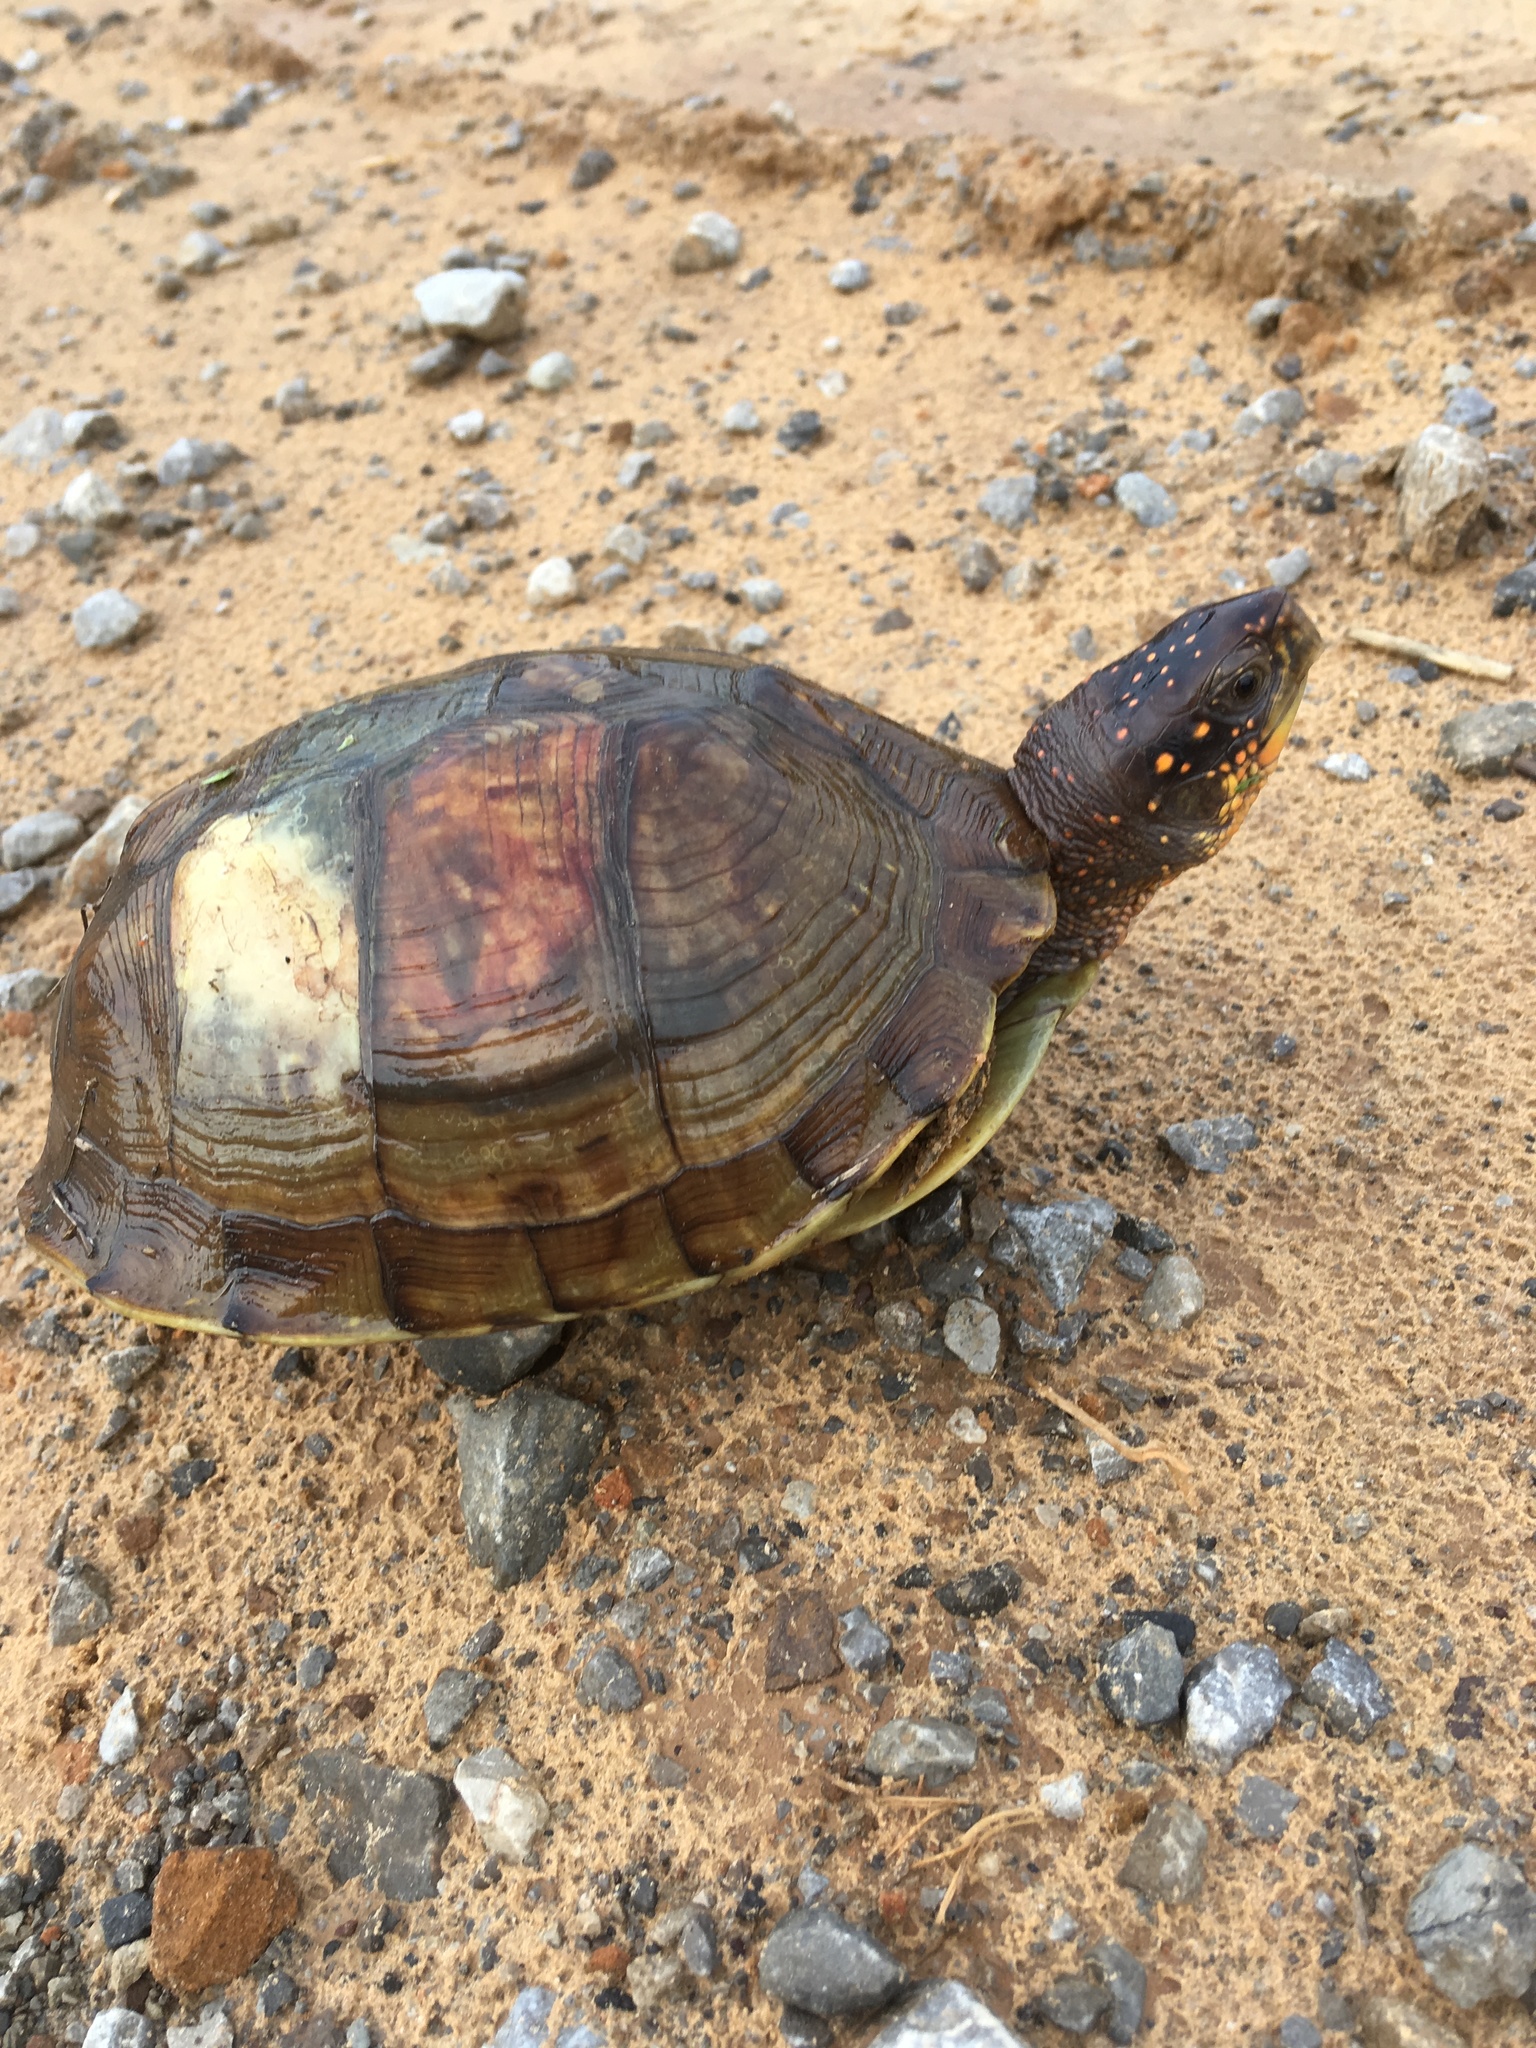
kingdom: Animalia
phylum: Chordata
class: Testudines
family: Emydidae
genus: Terrapene
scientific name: Terrapene carolina
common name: Common box turtle
